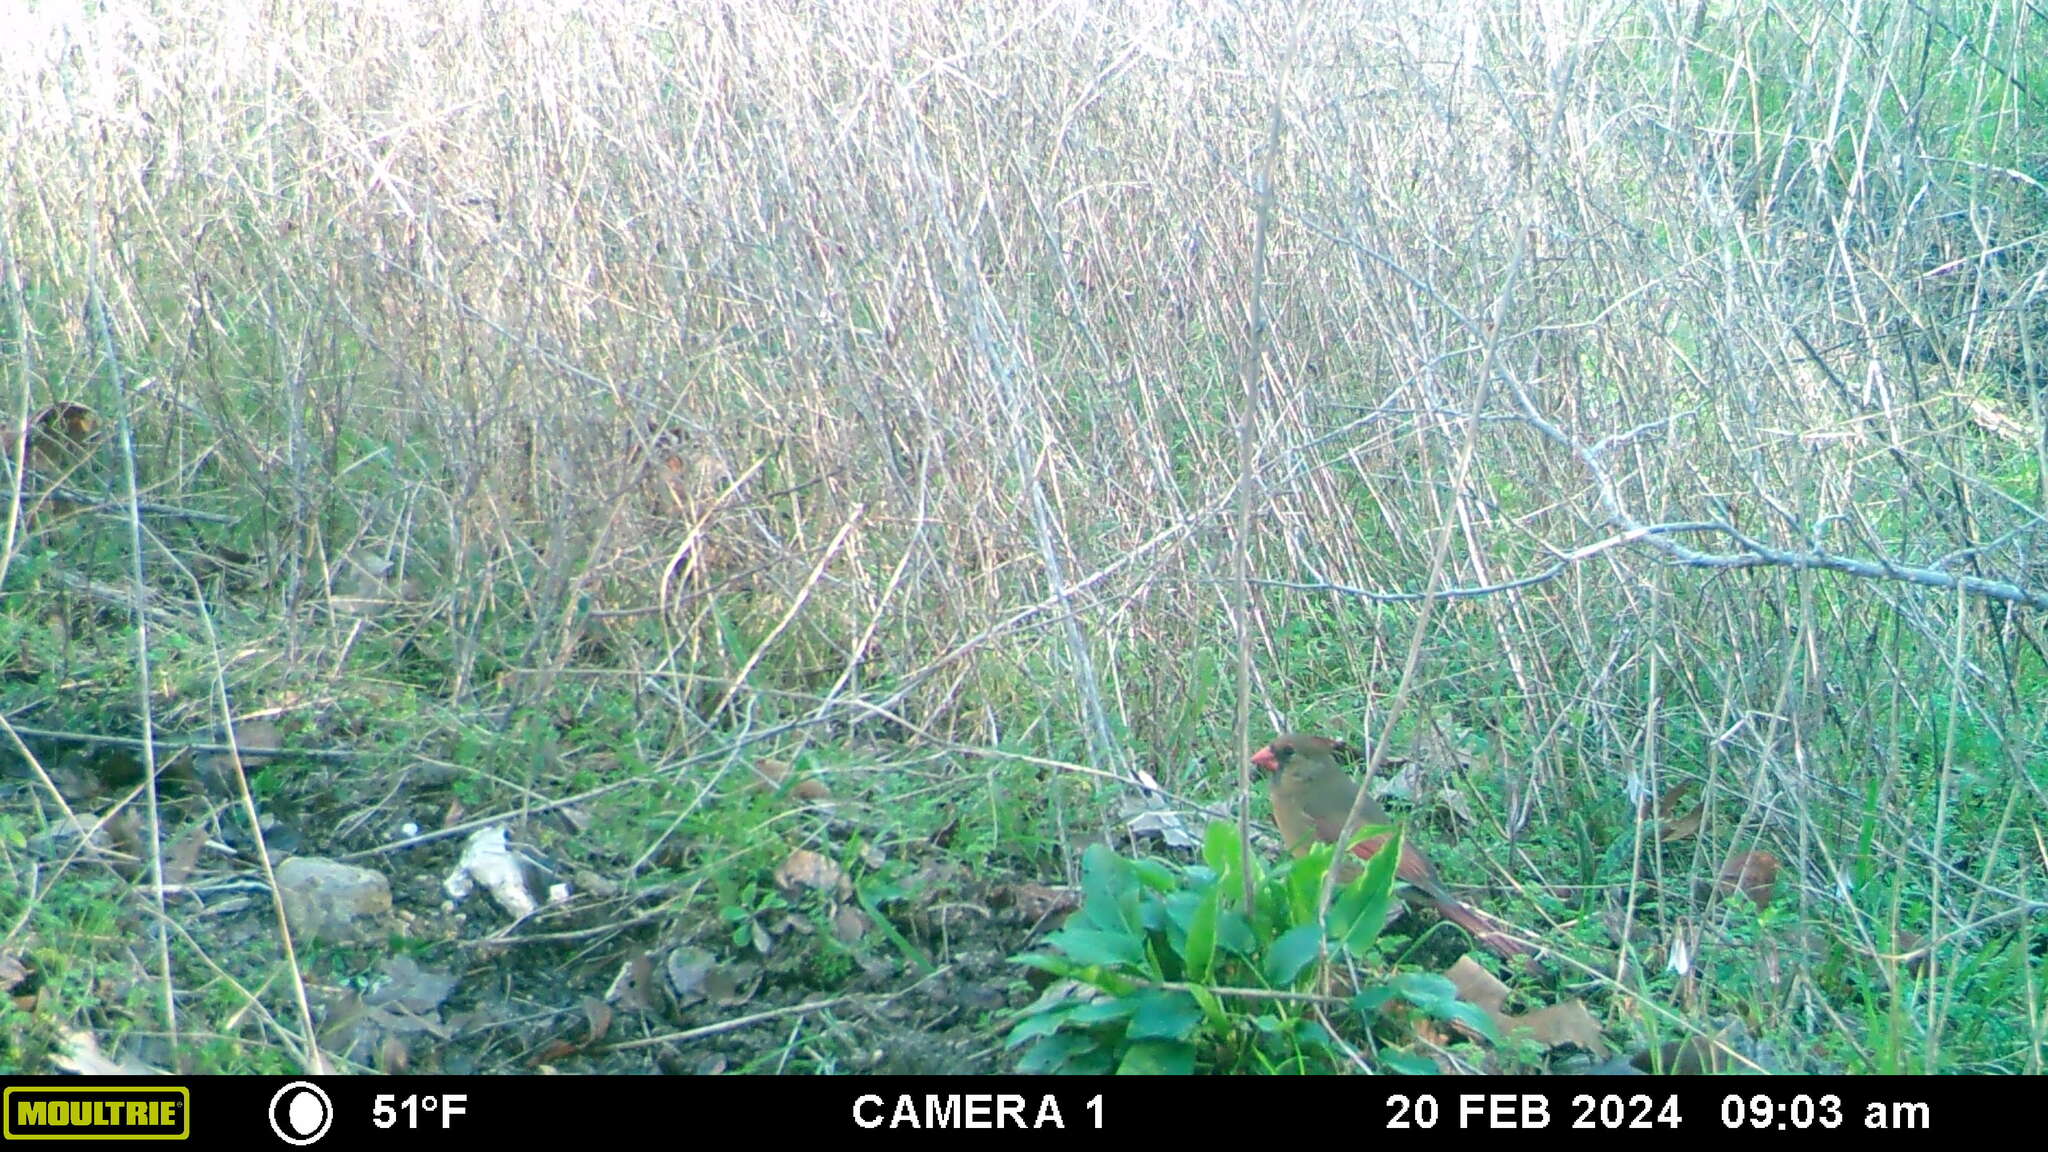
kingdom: Animalia
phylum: Chordata
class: Aves
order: Passeriformes
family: Cardinalidae
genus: Cardinalis
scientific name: Cardinalis cardinalis
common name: Northern cardinal
